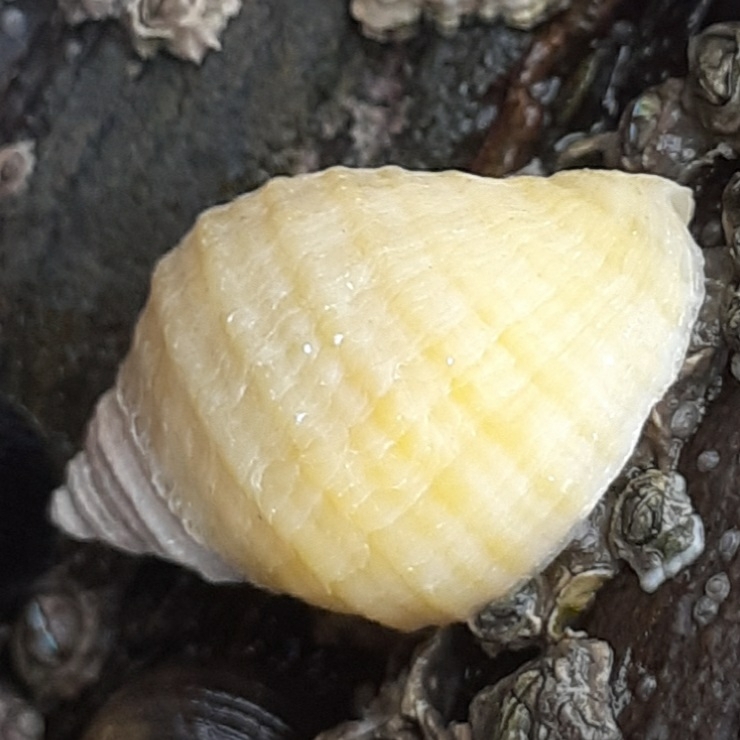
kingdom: Animalia
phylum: Mollusca
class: Gastropoda
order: Neogastropoda
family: Muricidae
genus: Nucella
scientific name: Nucella lapillus
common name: Dog whelk
